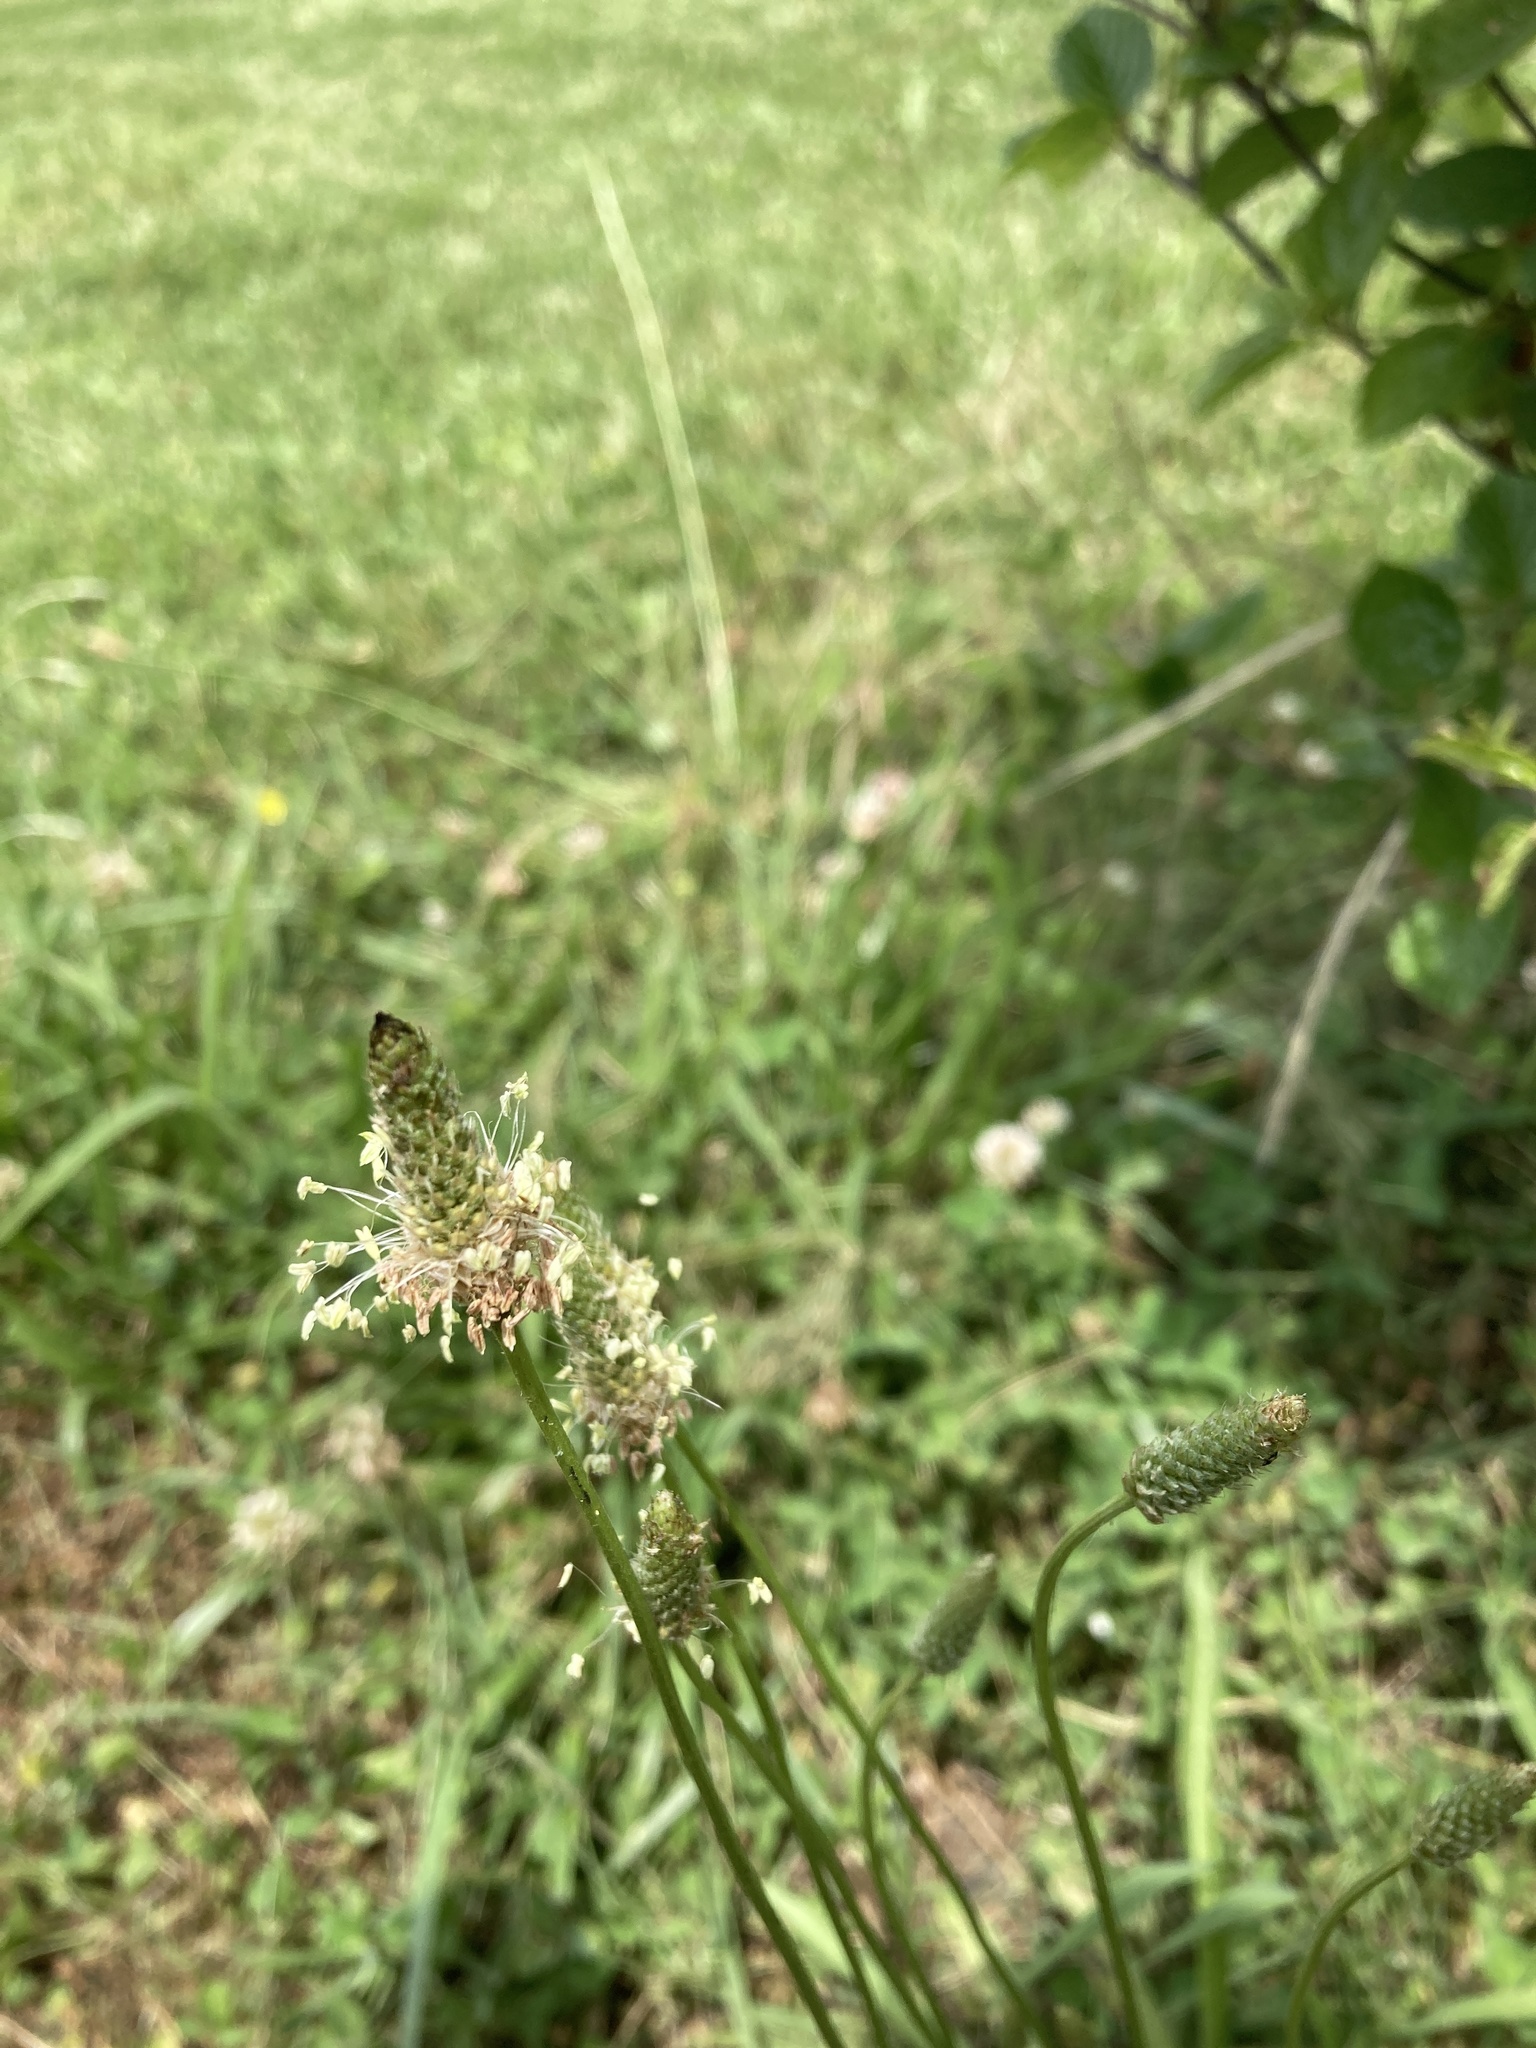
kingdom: Plantae
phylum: Tracheophyta
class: Magnoliopsida
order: Lamiales
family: Plantaginaceae
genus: Plantago
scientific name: Plantago lanceolata
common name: Ribwort plantain
